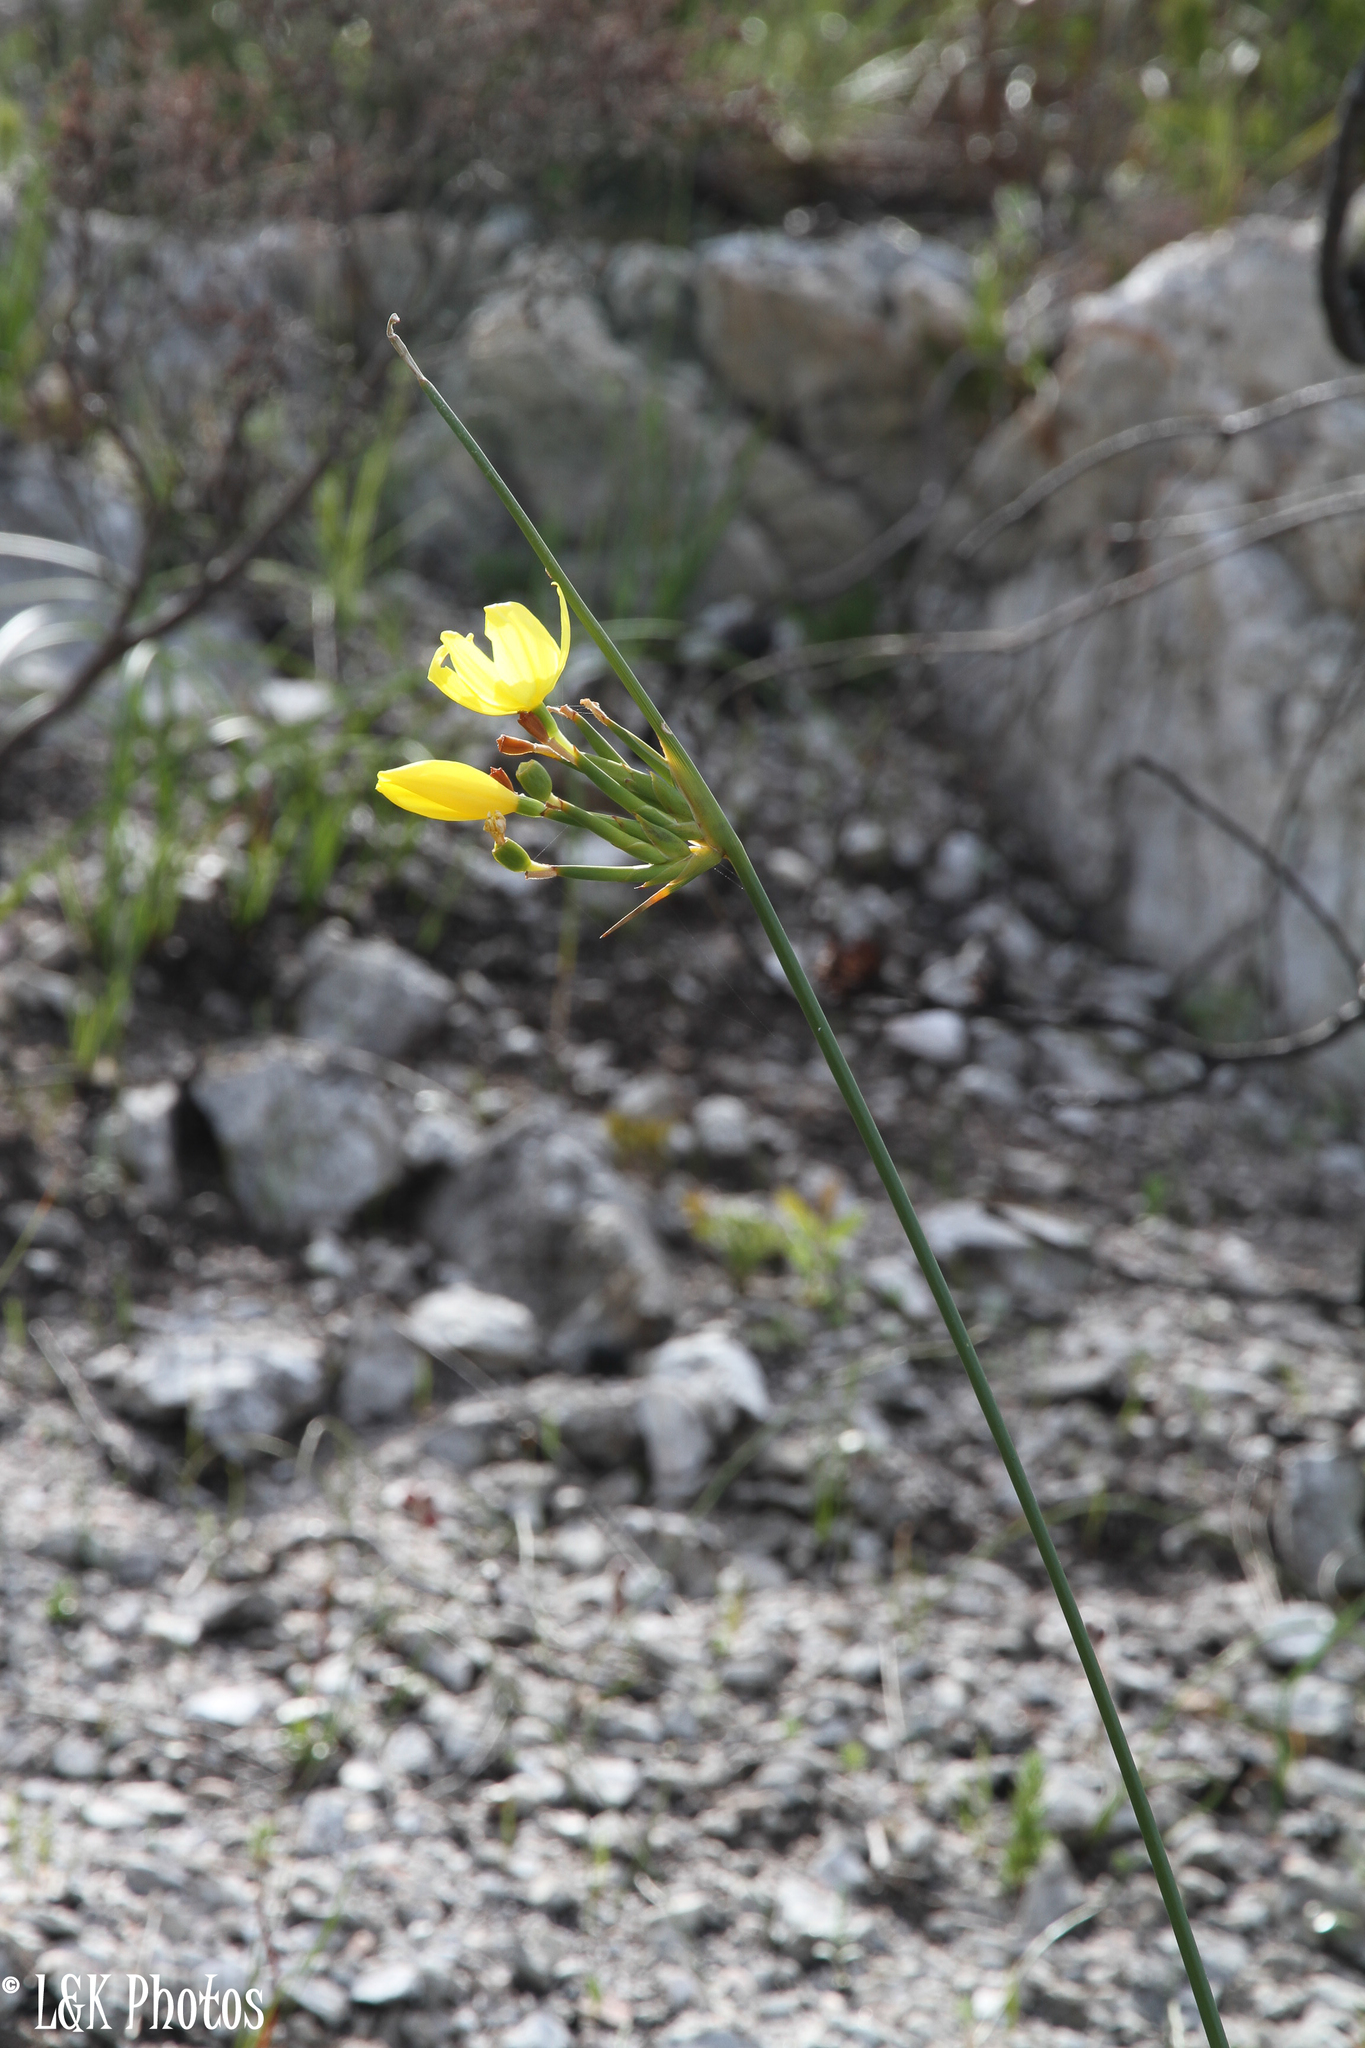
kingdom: Plantae
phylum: Tracheophyta
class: Liliopsida
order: Asparagales
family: Iridaceae
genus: Bobartia
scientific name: Bobartia indica
